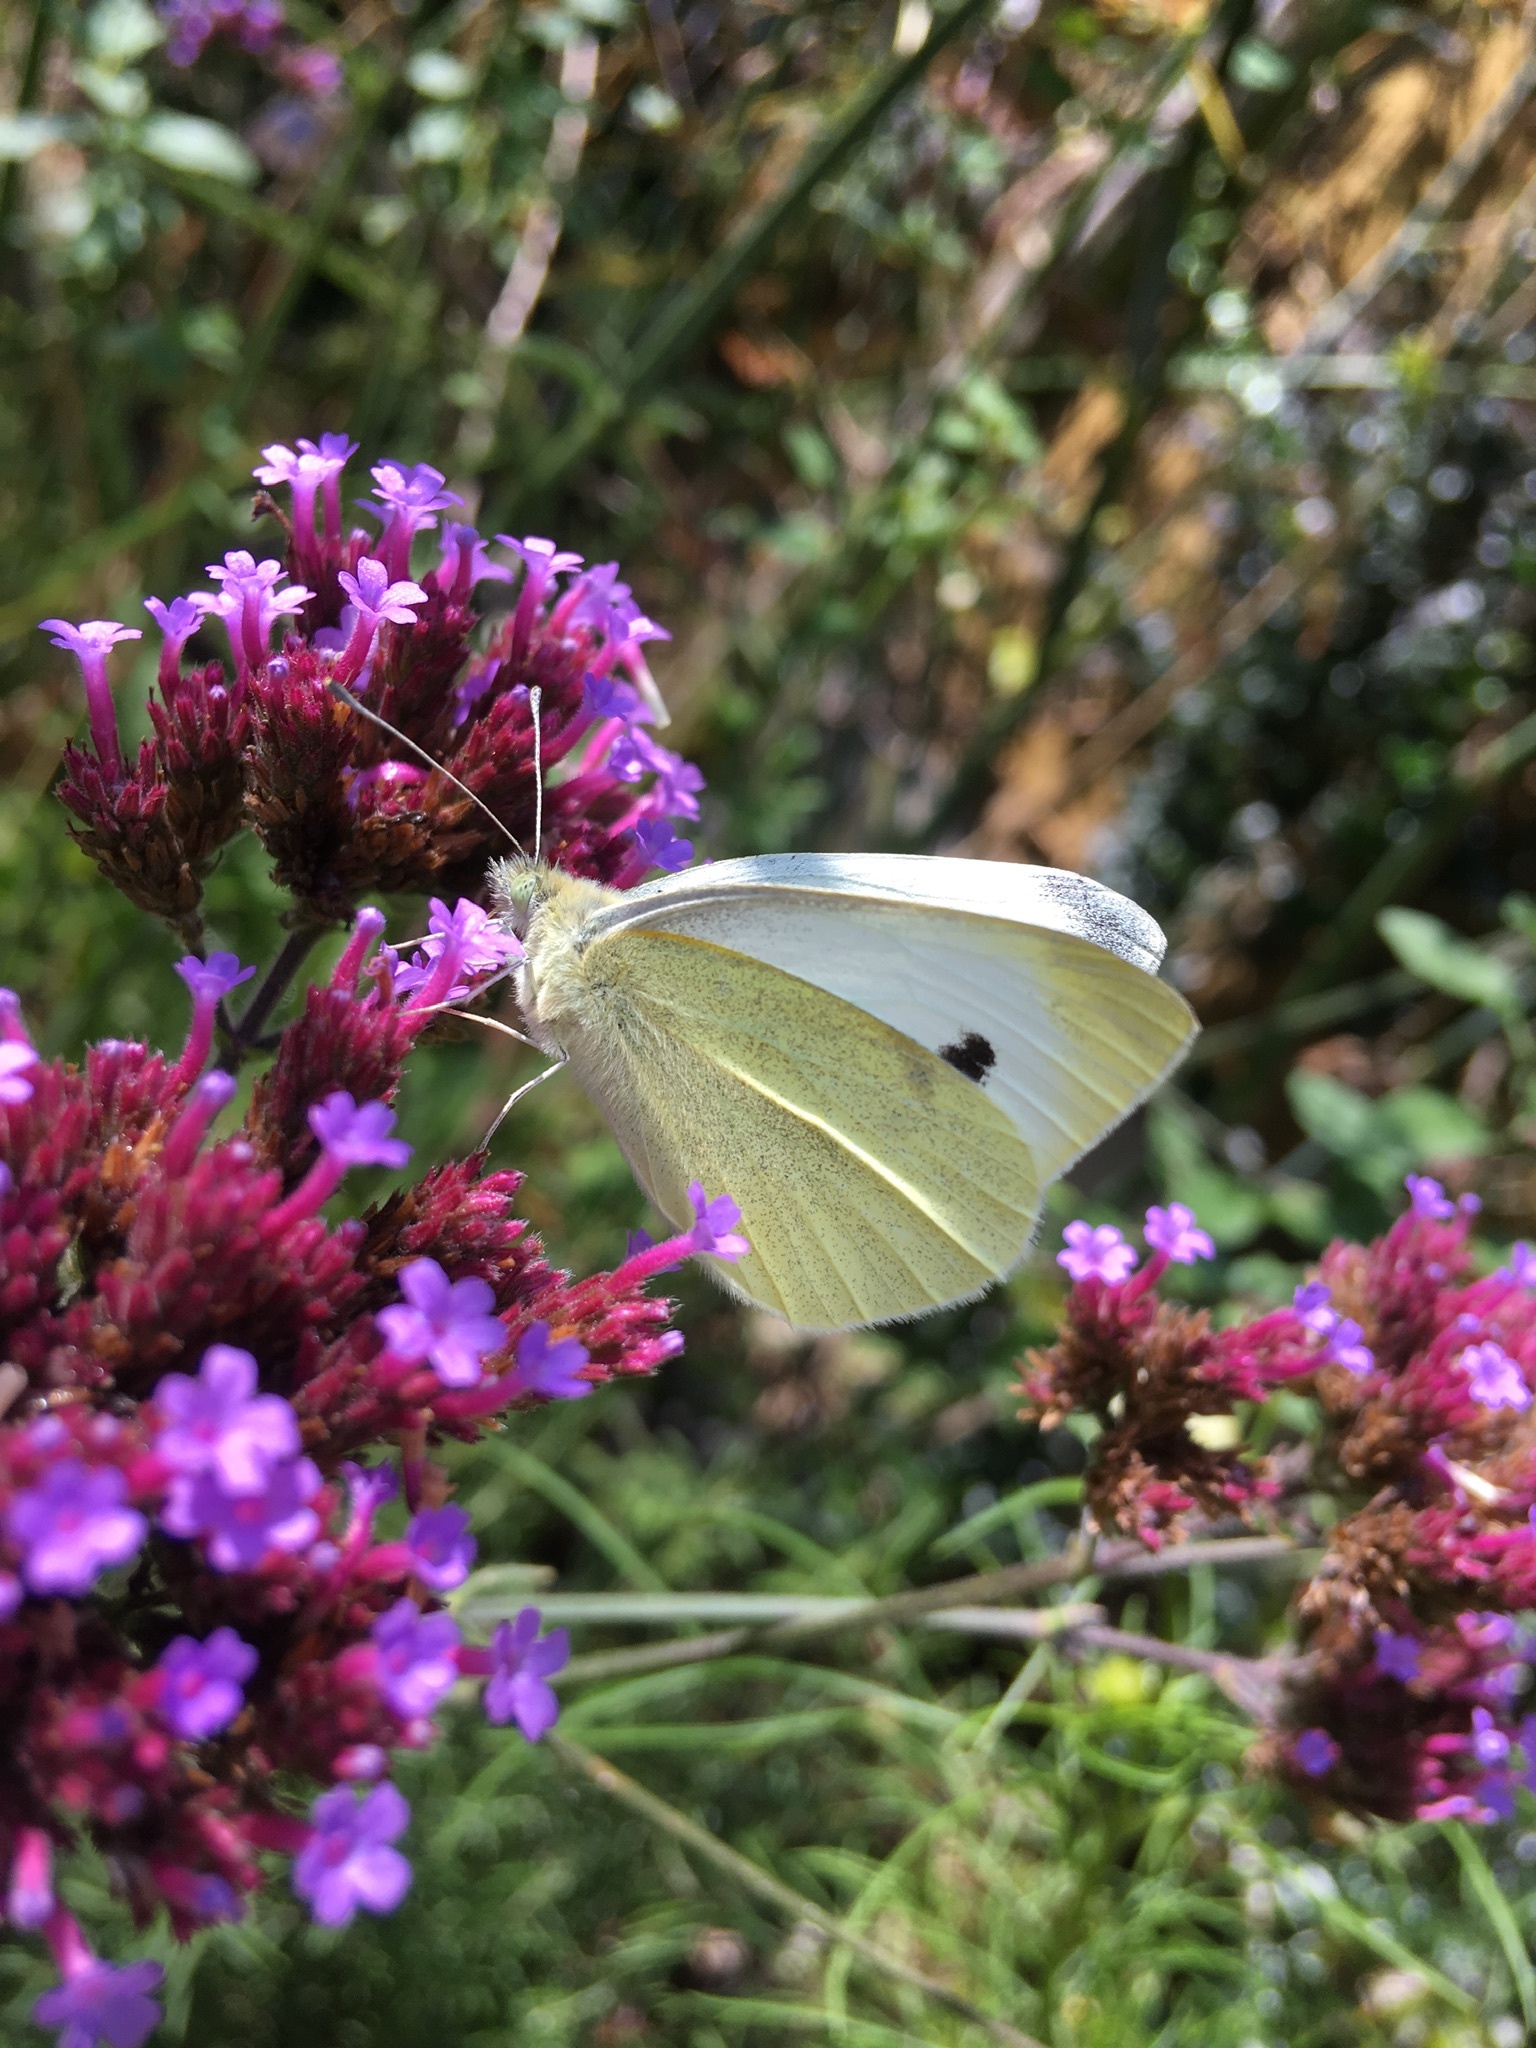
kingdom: Animalia
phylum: Arthropoda
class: Insecta
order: Lepidoptera
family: Pieridae
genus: Pieris
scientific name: Pieris brassicae
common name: Large white
